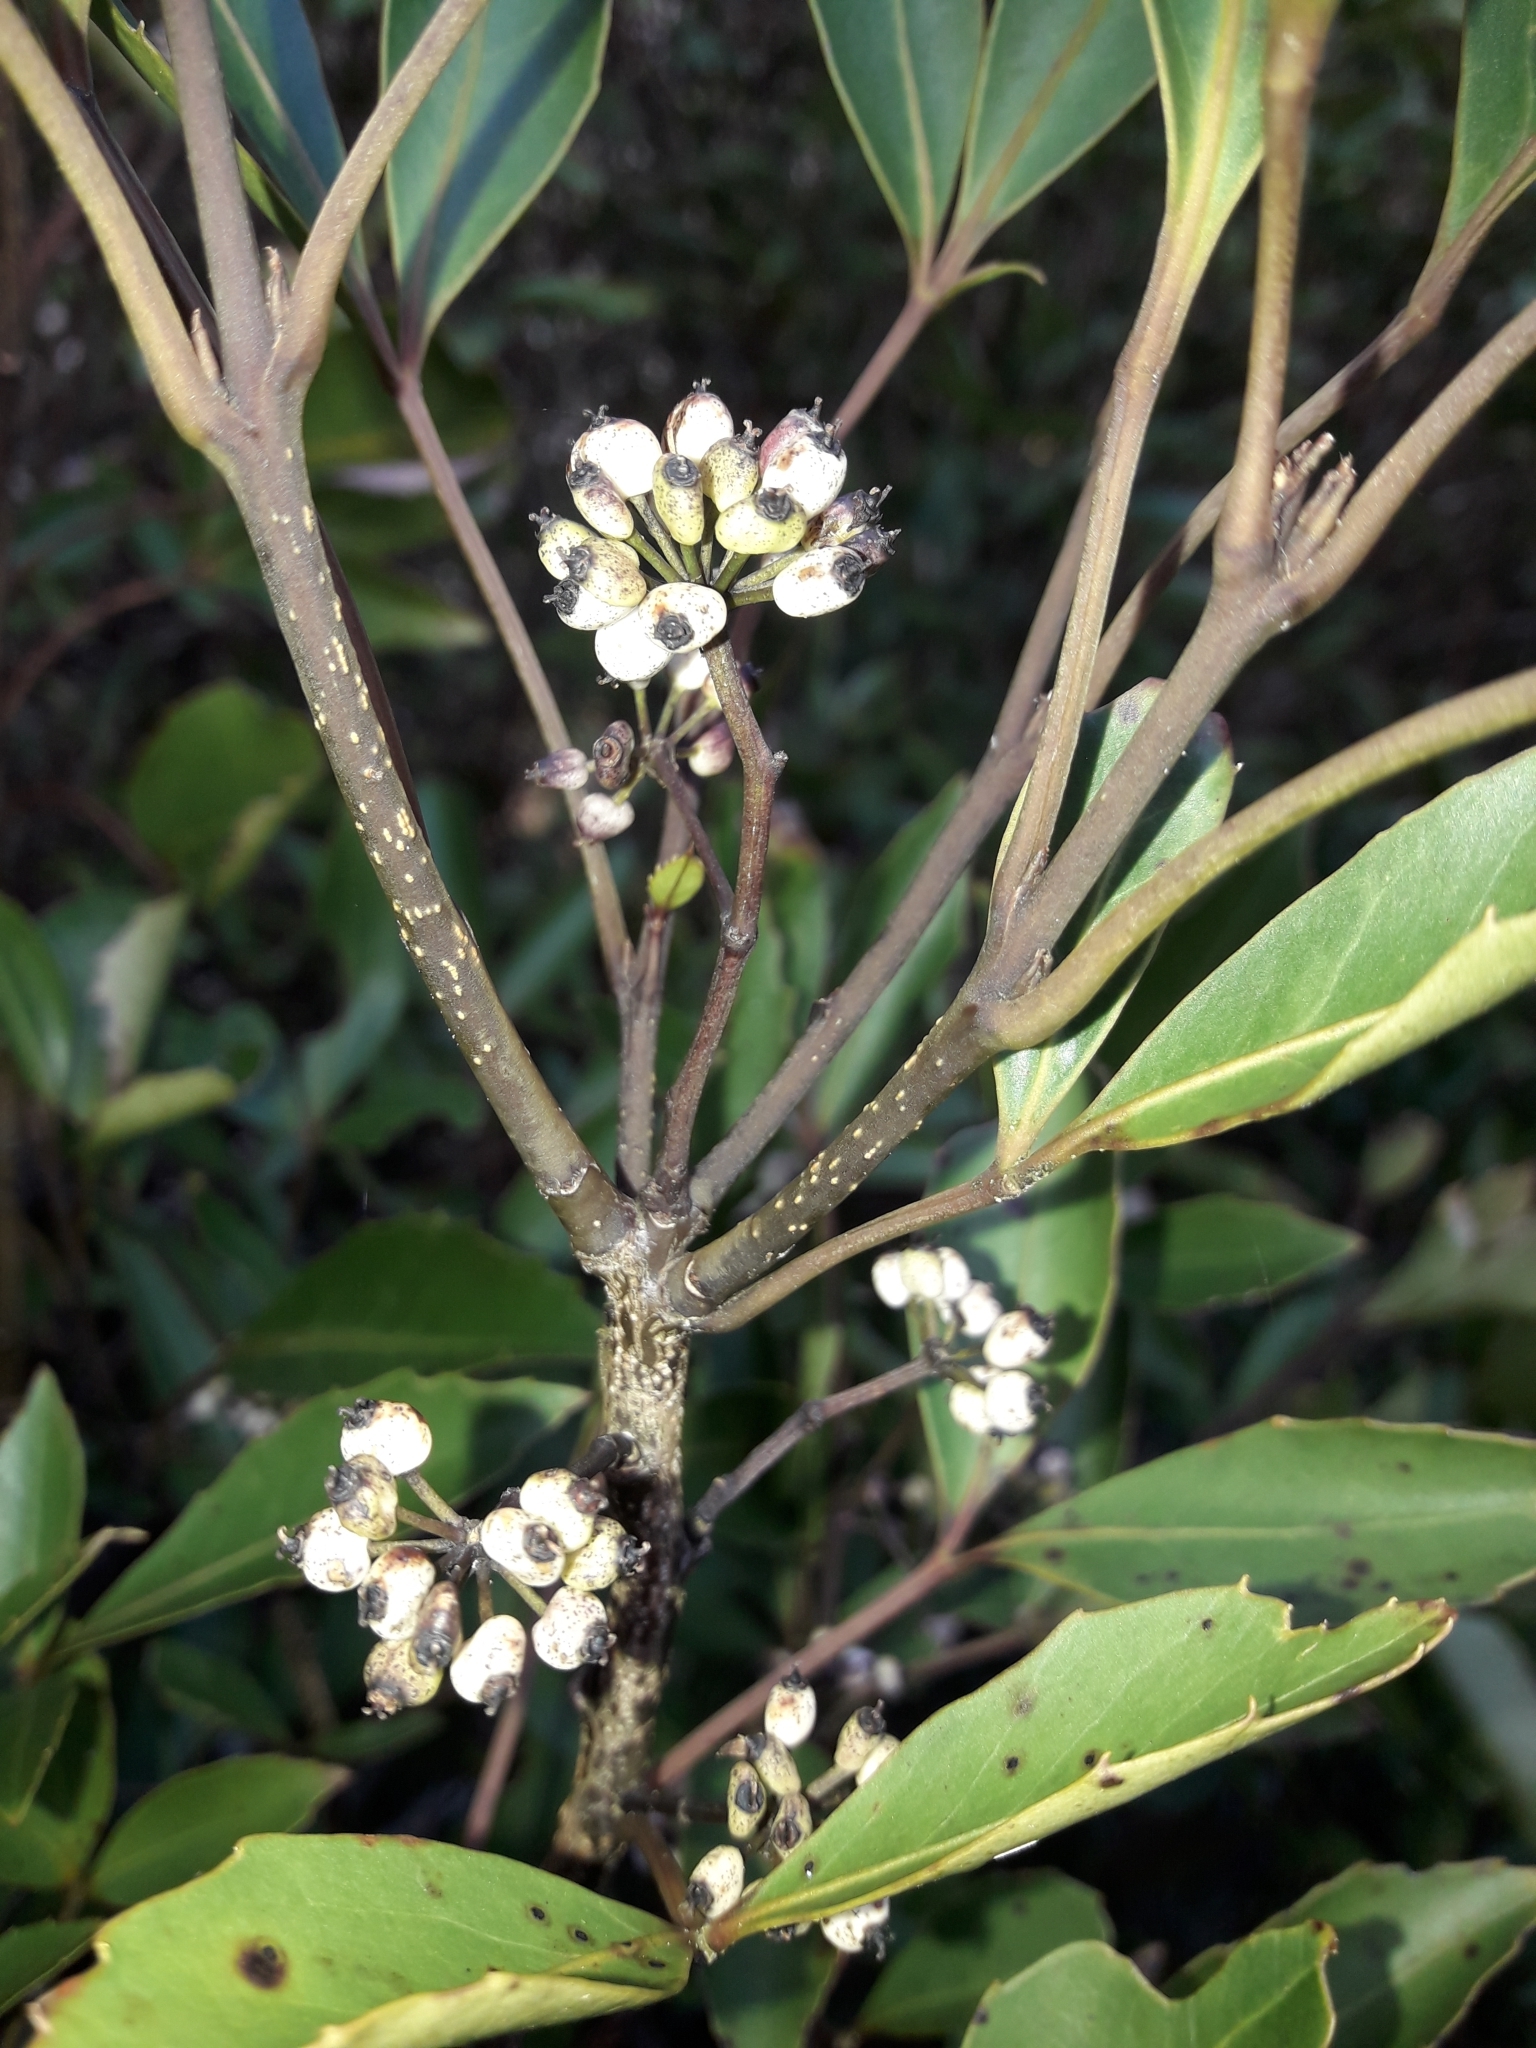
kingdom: Plantae
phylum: Tracheophyta
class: Magnoliopsida
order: Apiales
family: Araliaceae
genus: Raukaua
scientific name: Raukaua simplex
